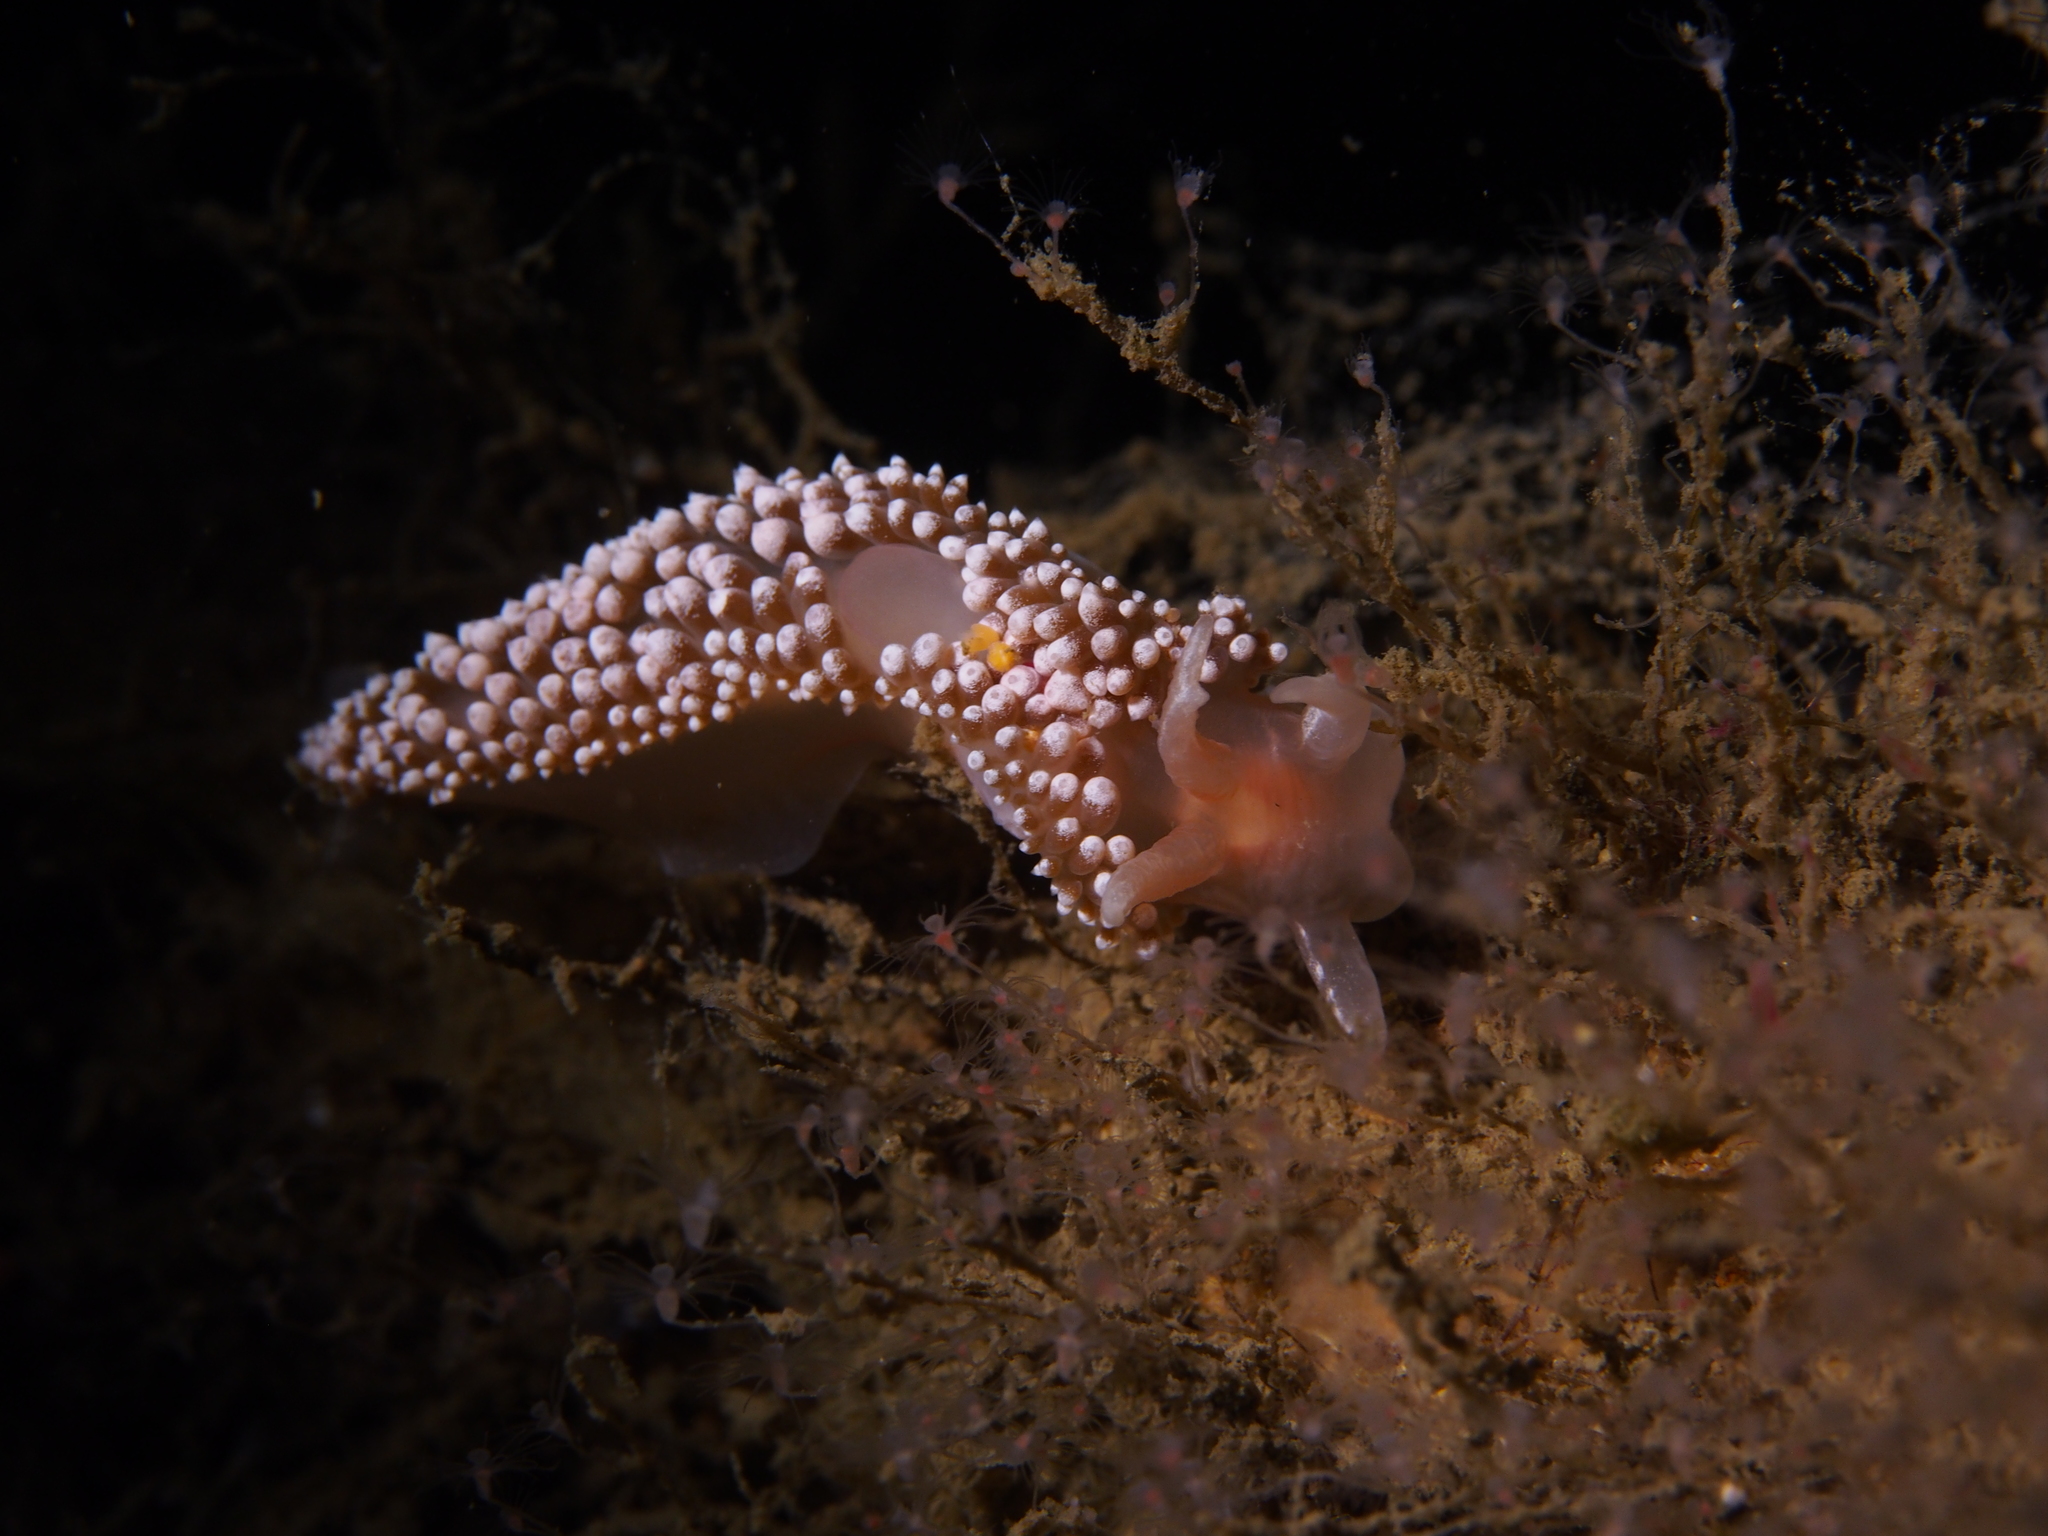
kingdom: Animalia
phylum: Mollusca
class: Gastropoda
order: Nudibranchia
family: Coryphellidae
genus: Coryphella
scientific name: Coryphella verrucosa
